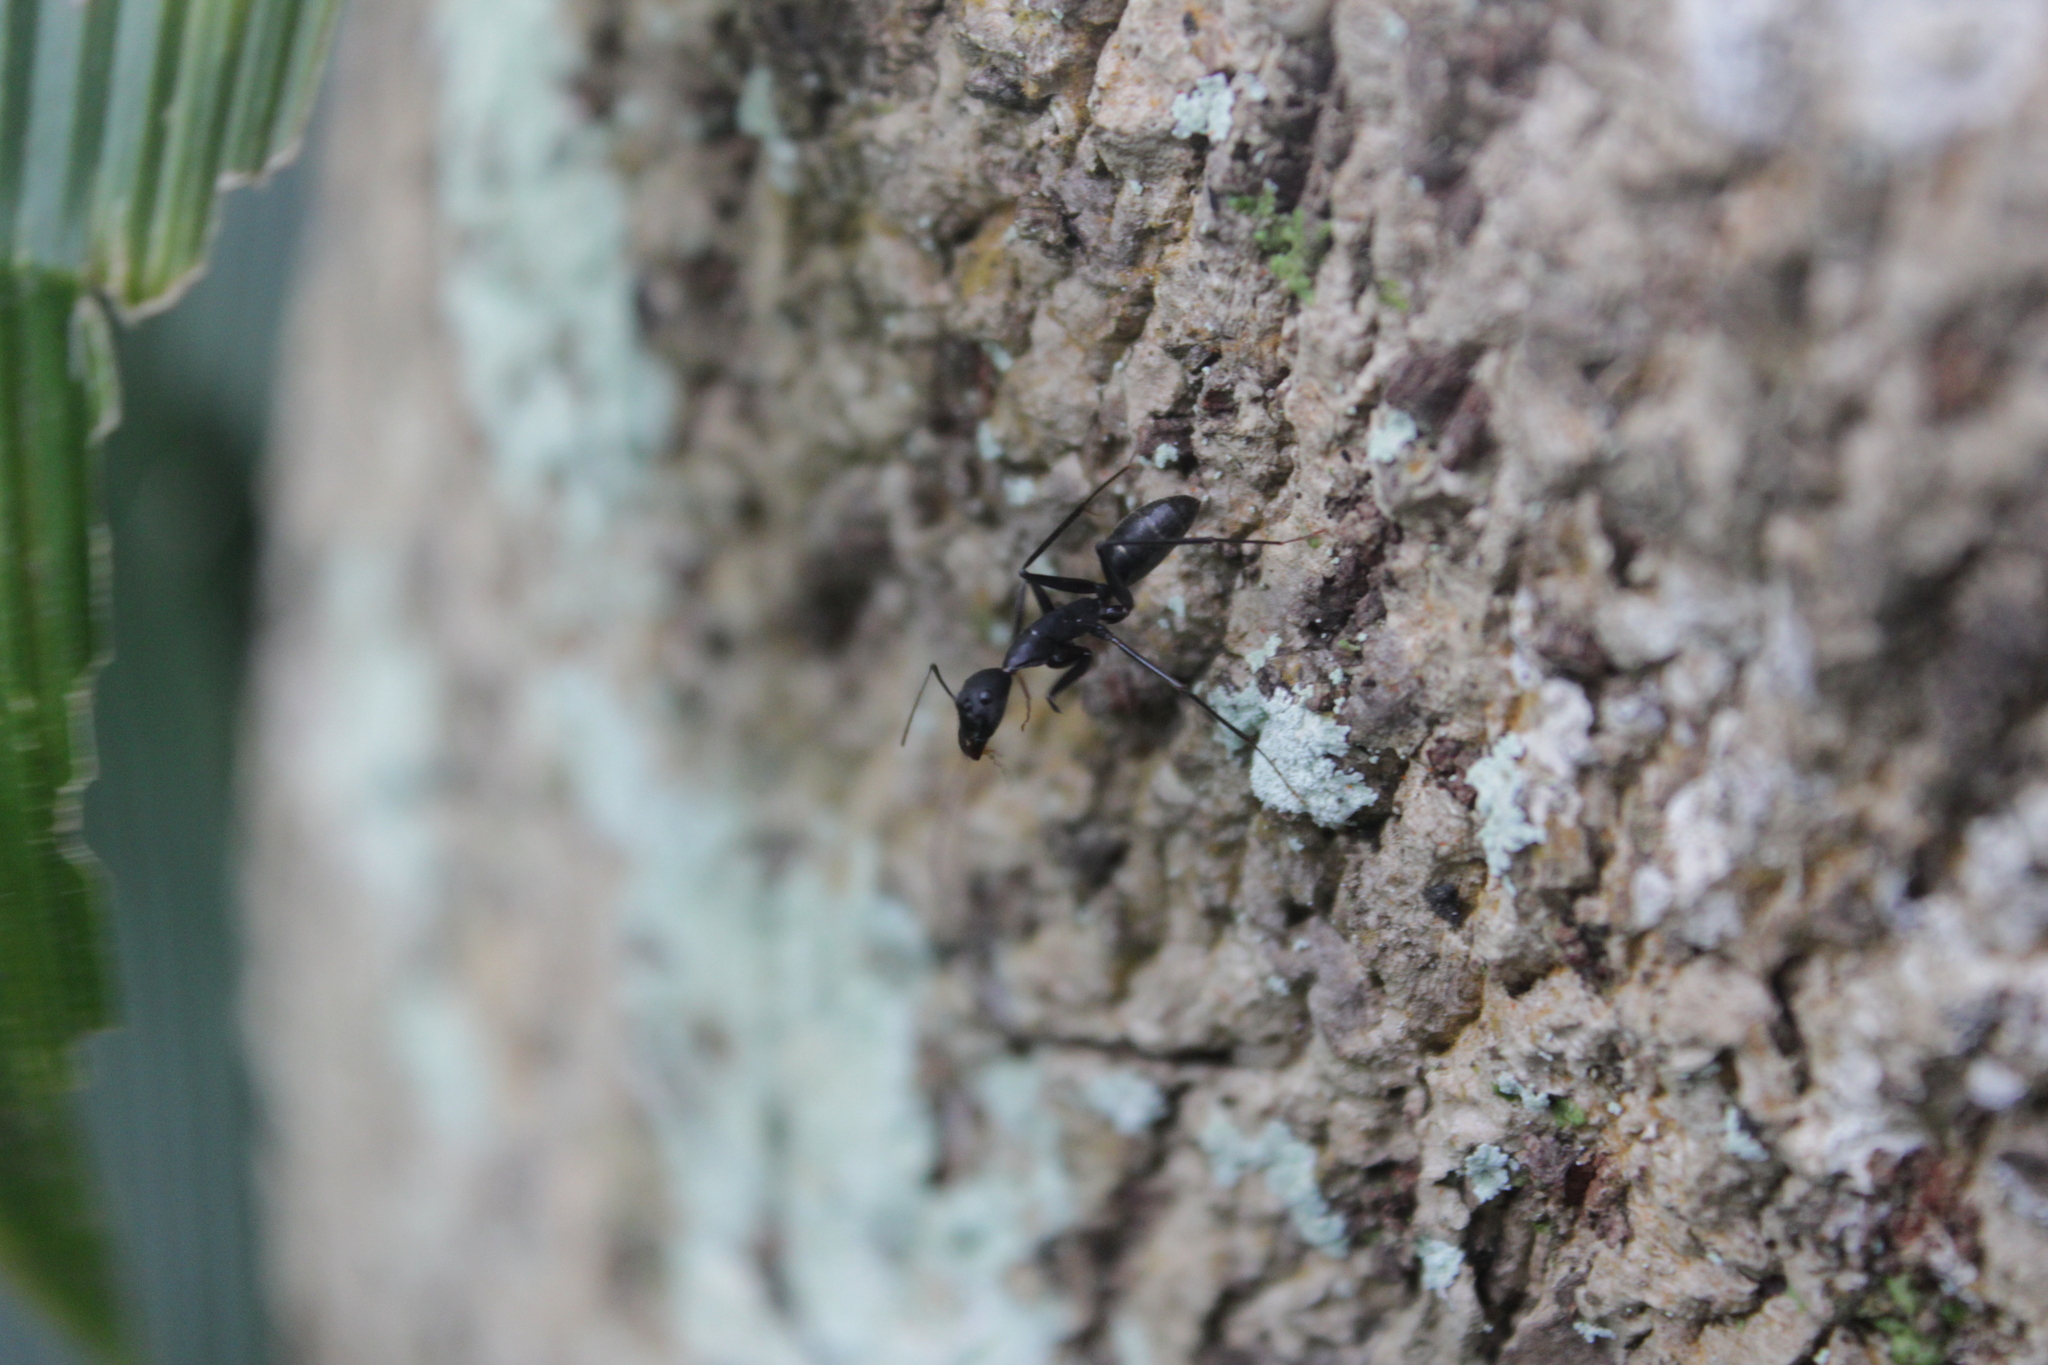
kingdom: Animalia
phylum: Arthropoda
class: Insecta
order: Hymenoptera
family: Formicidae
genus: Camponotus
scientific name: Camponotus natalensis
